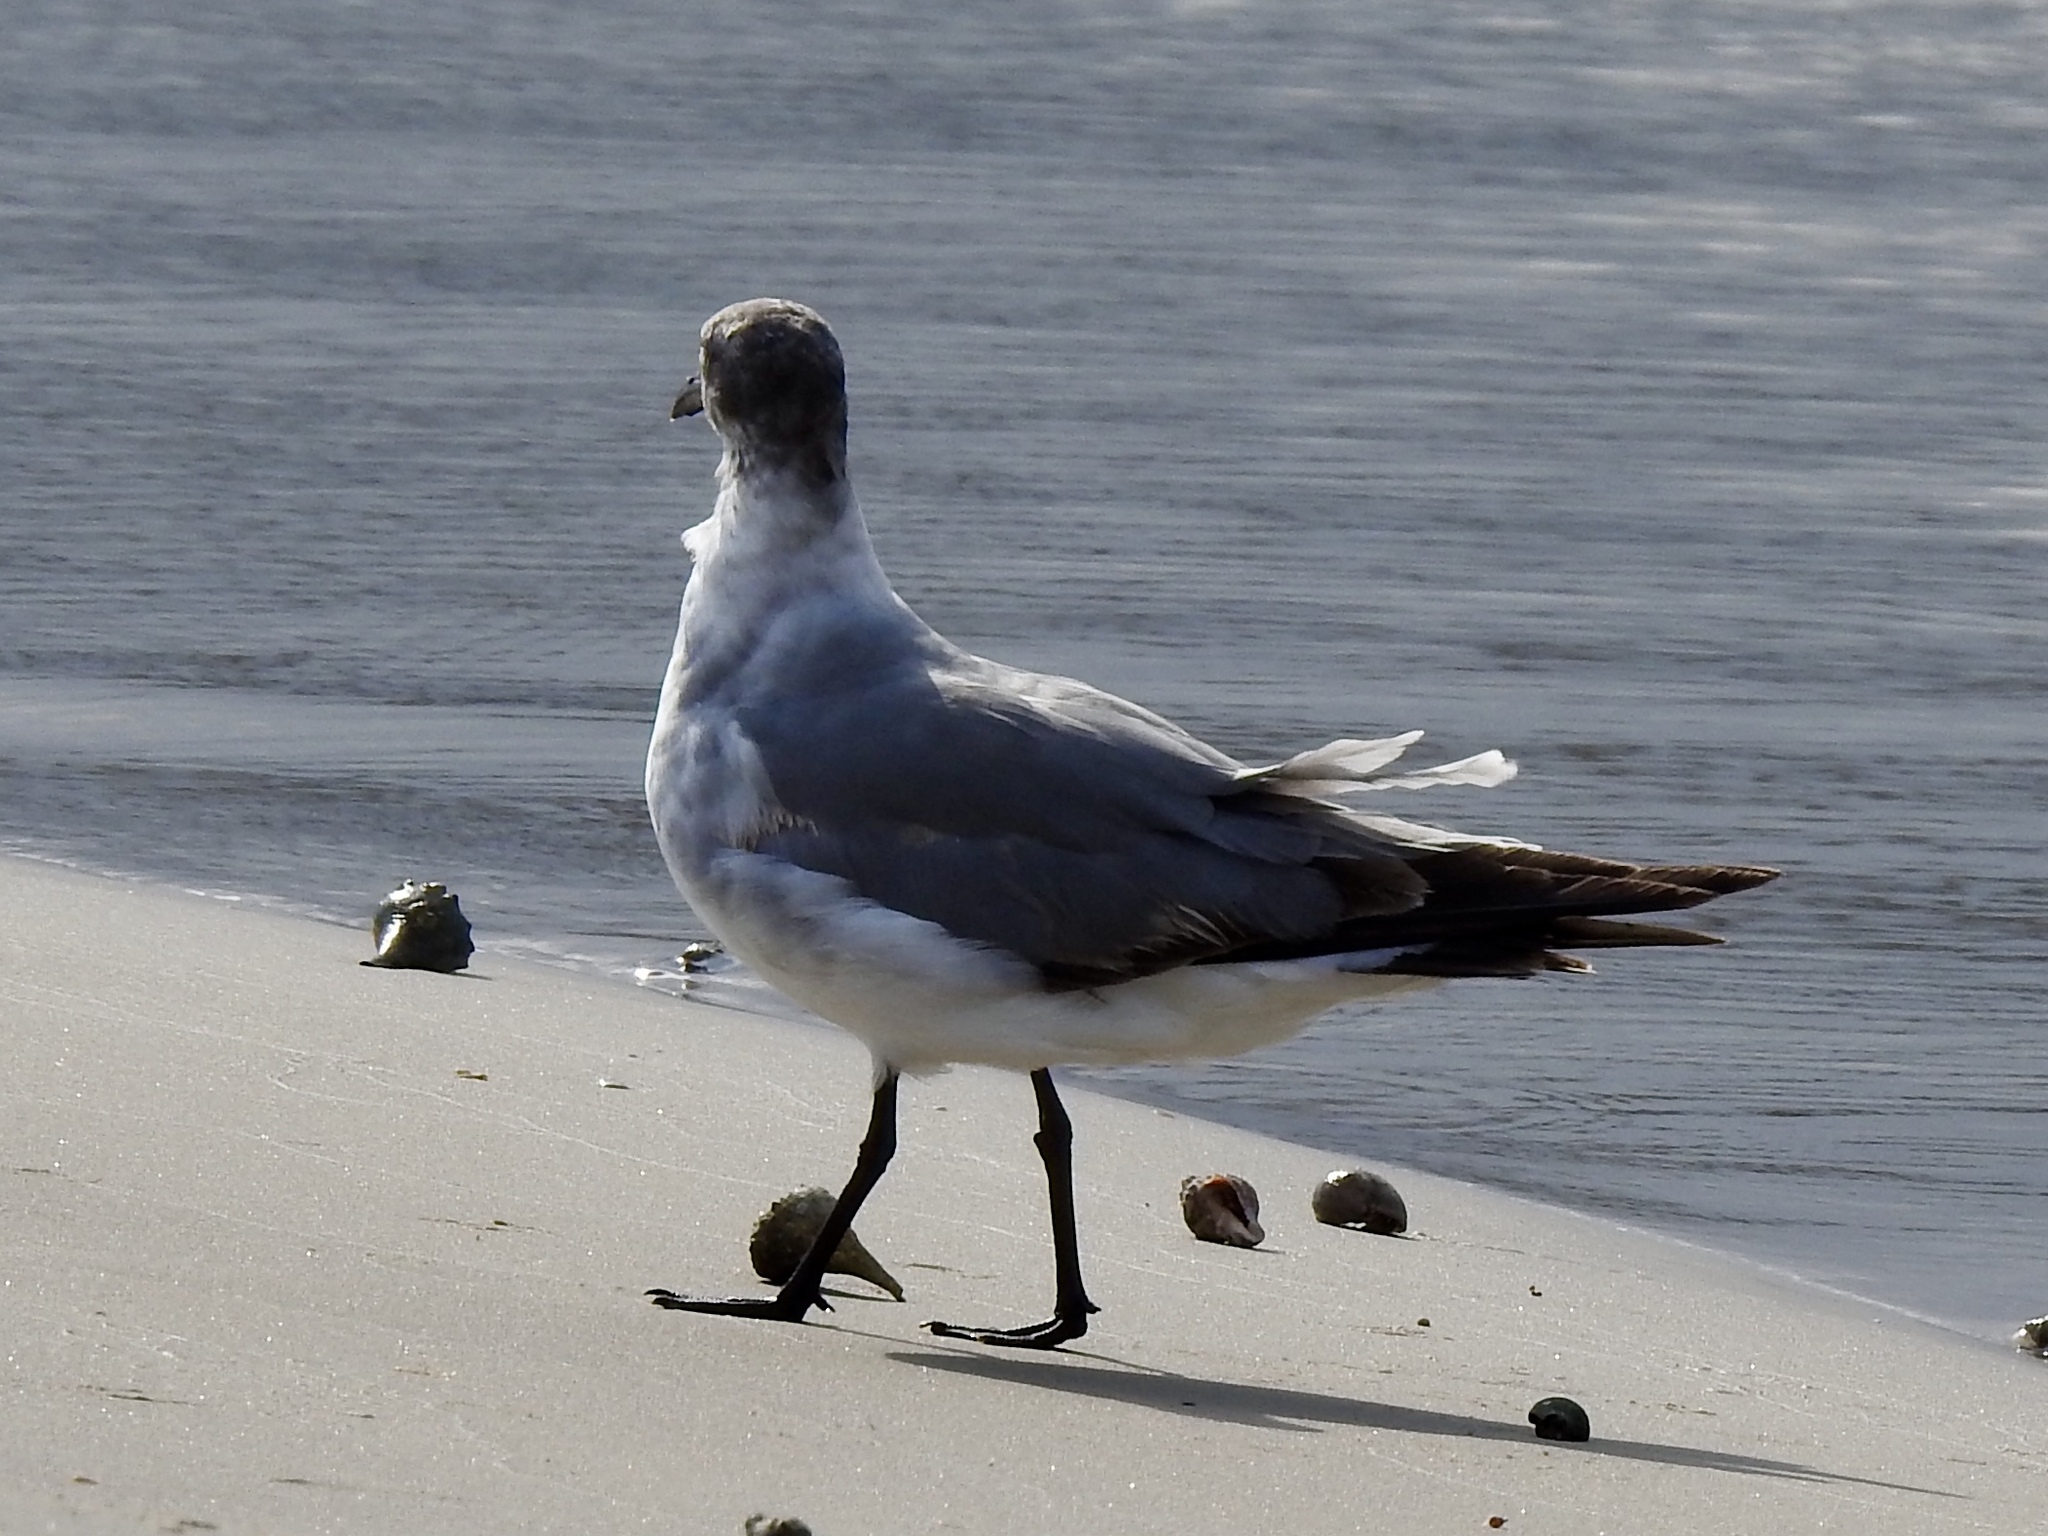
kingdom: Animalia
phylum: Chordata
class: Aves
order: Charadriiformes
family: Laridae
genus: Leucophaeus
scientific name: Leucophaeus atricilla
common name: Laughing gull
